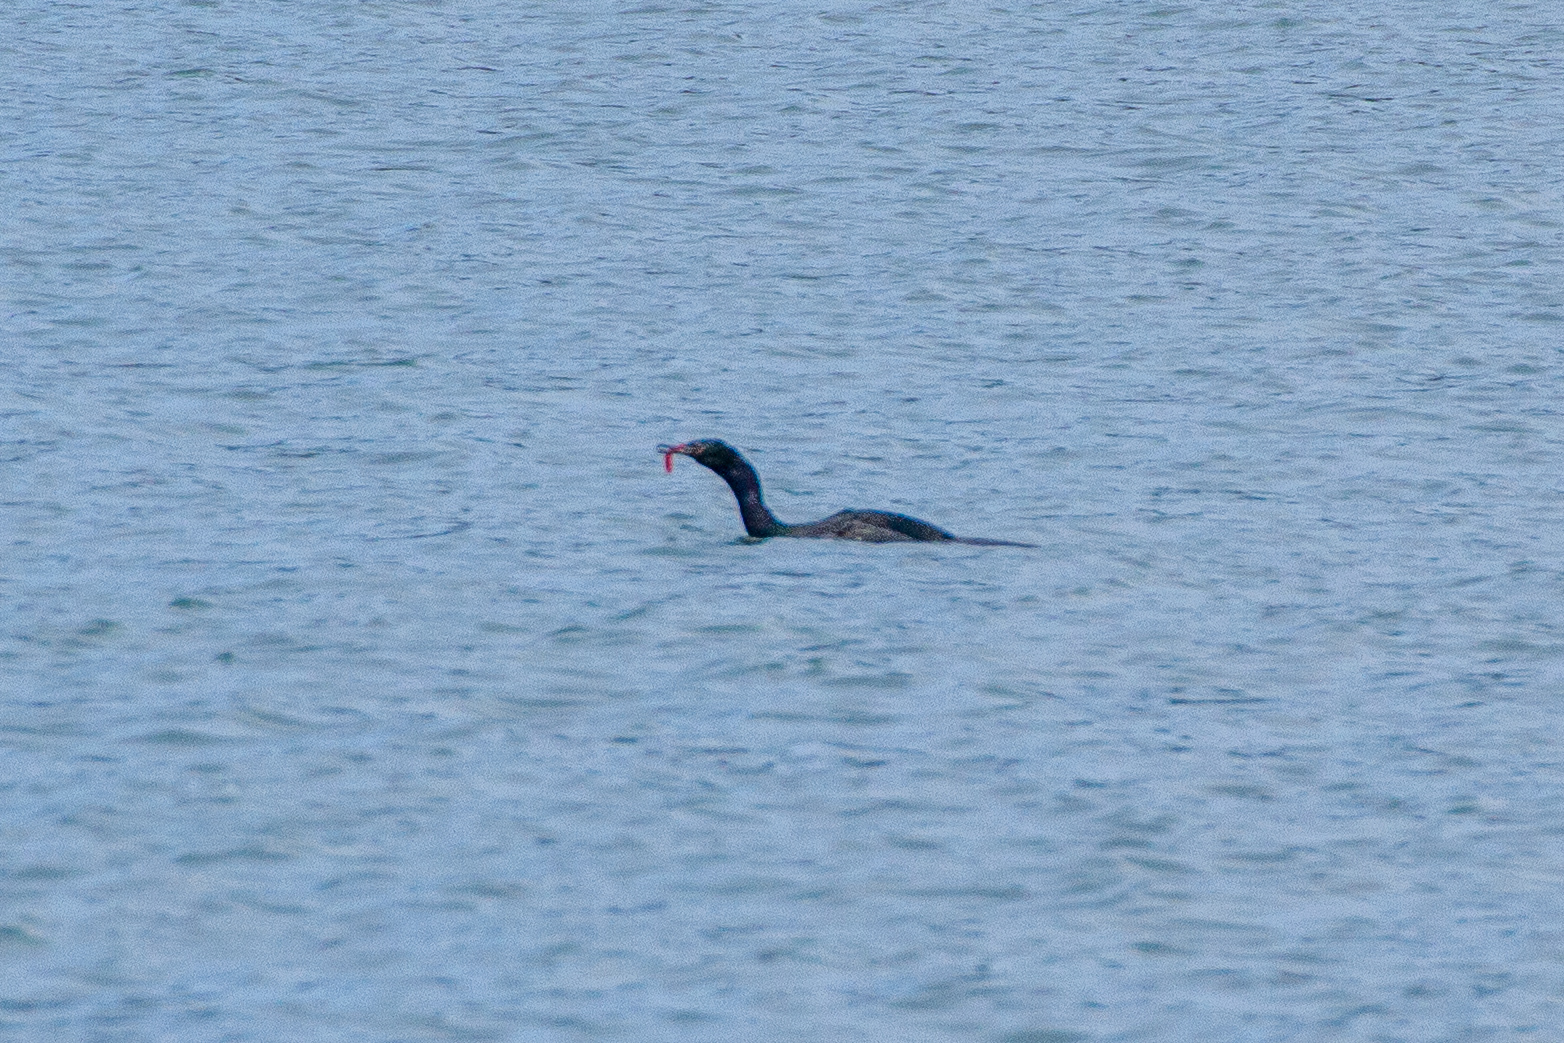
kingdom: Animalia
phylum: Chordata
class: Aves
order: Suliformes
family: Phalacrocoracidae
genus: Phalacrocorax
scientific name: Phalacrocorax pelagicus
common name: Pelagic cormorant
